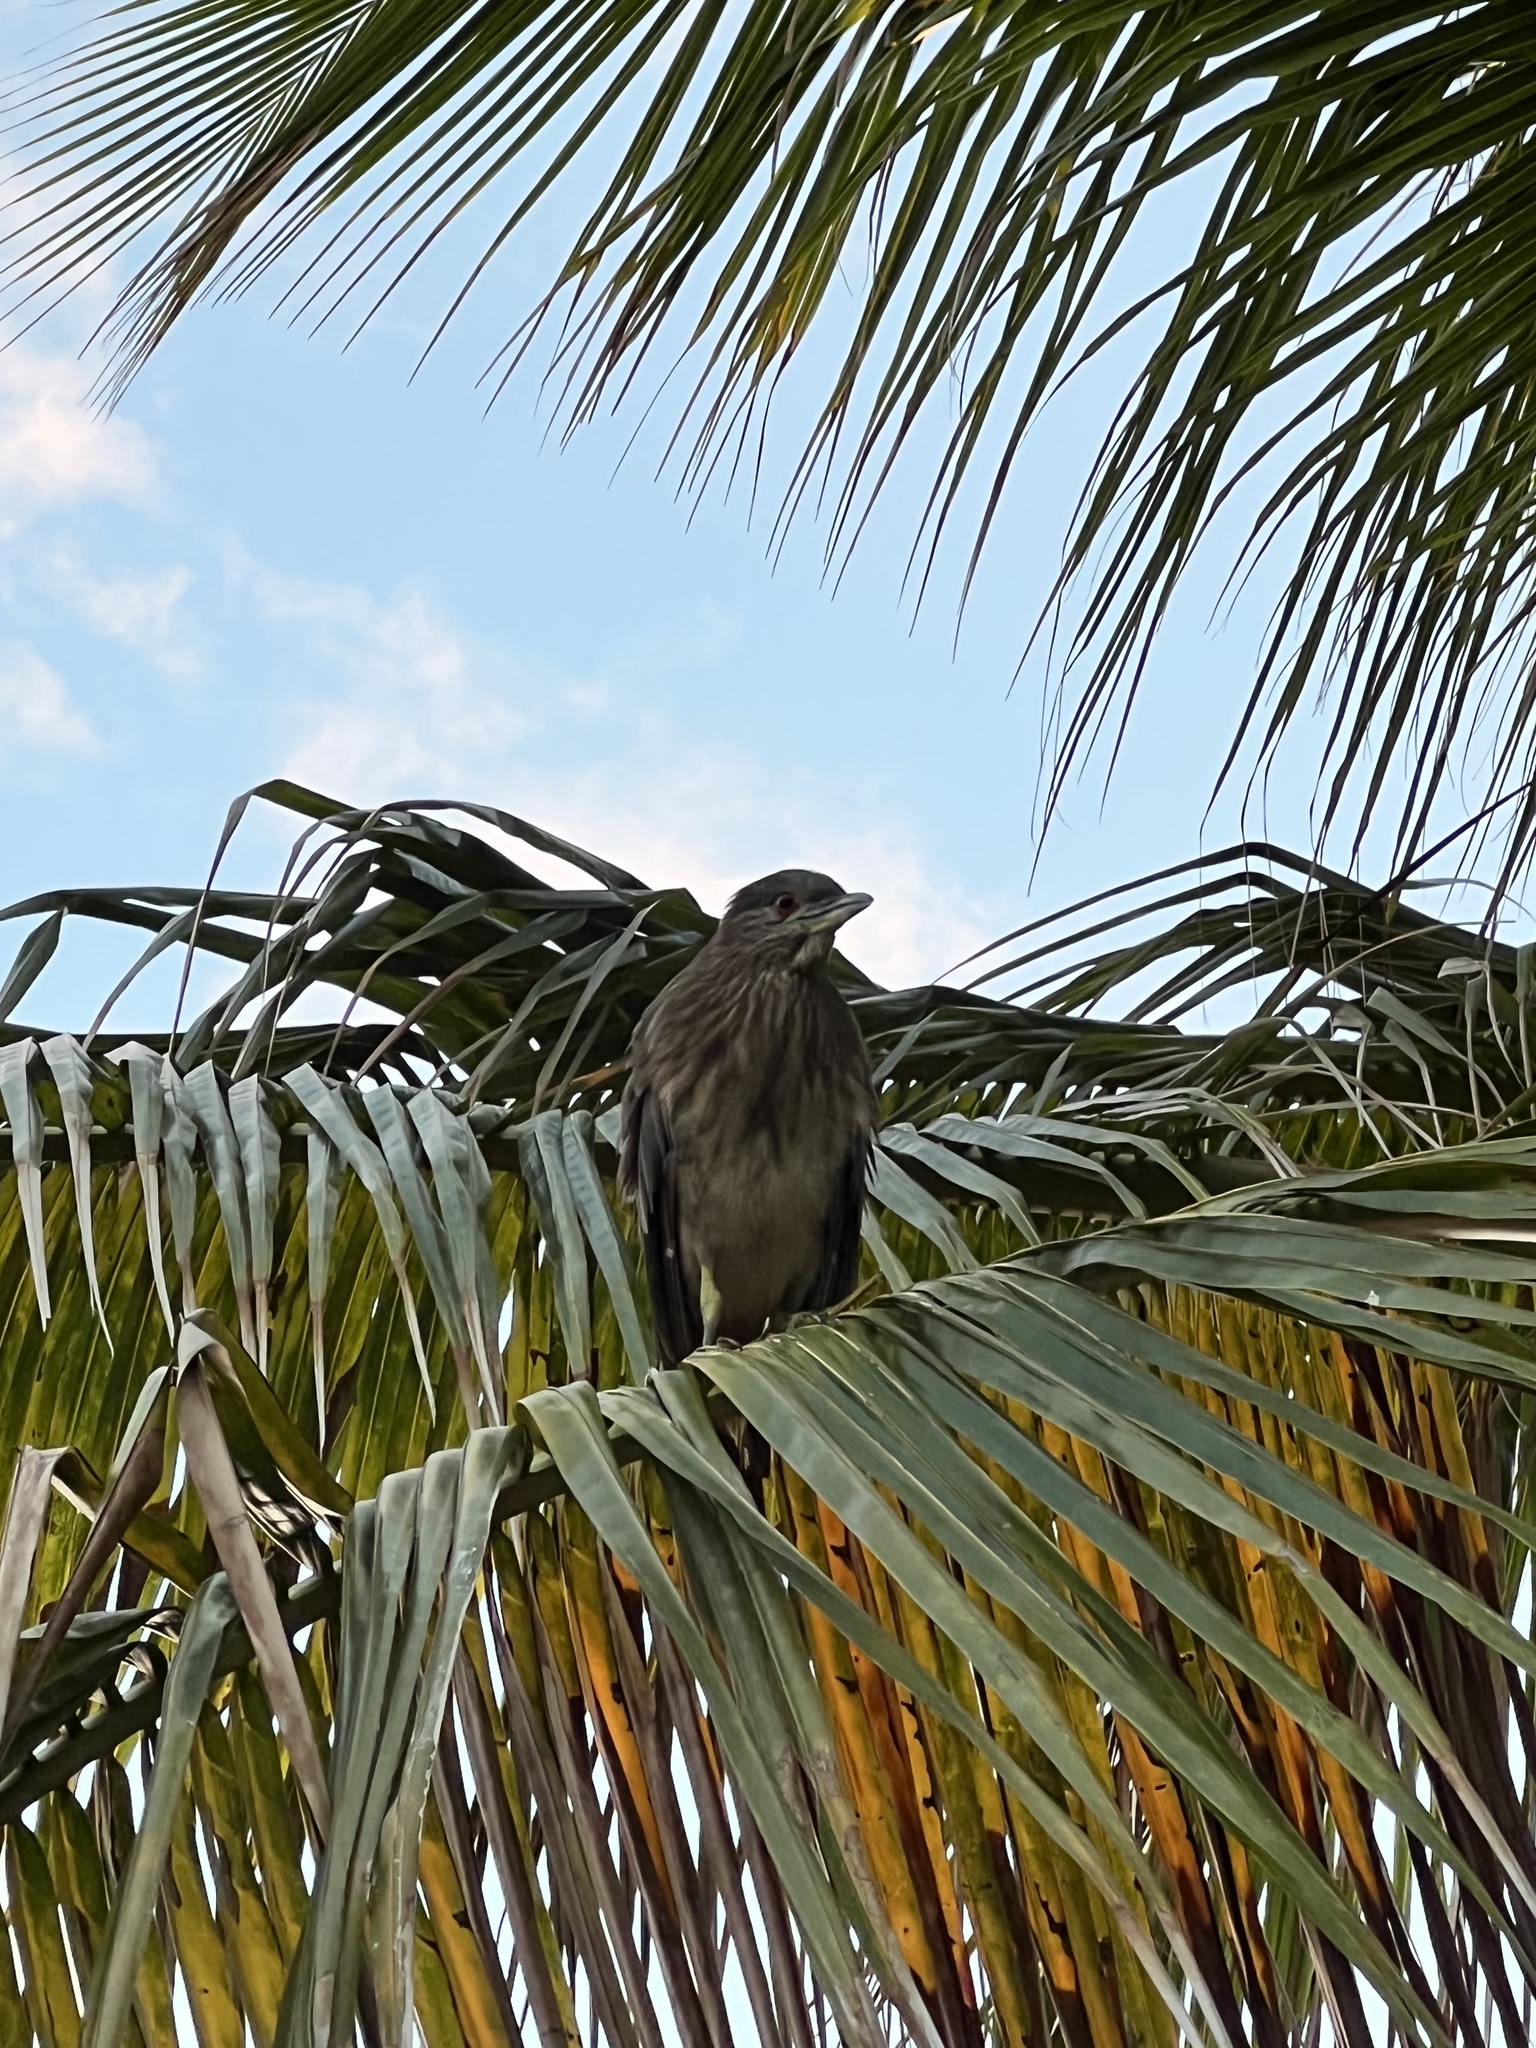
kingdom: Animalia
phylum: Chordata
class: Aves
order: Pelecaniformes
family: Ardeidae
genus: Nycticorax
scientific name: Nycticorax nycticorax
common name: Black-crowned night heron
